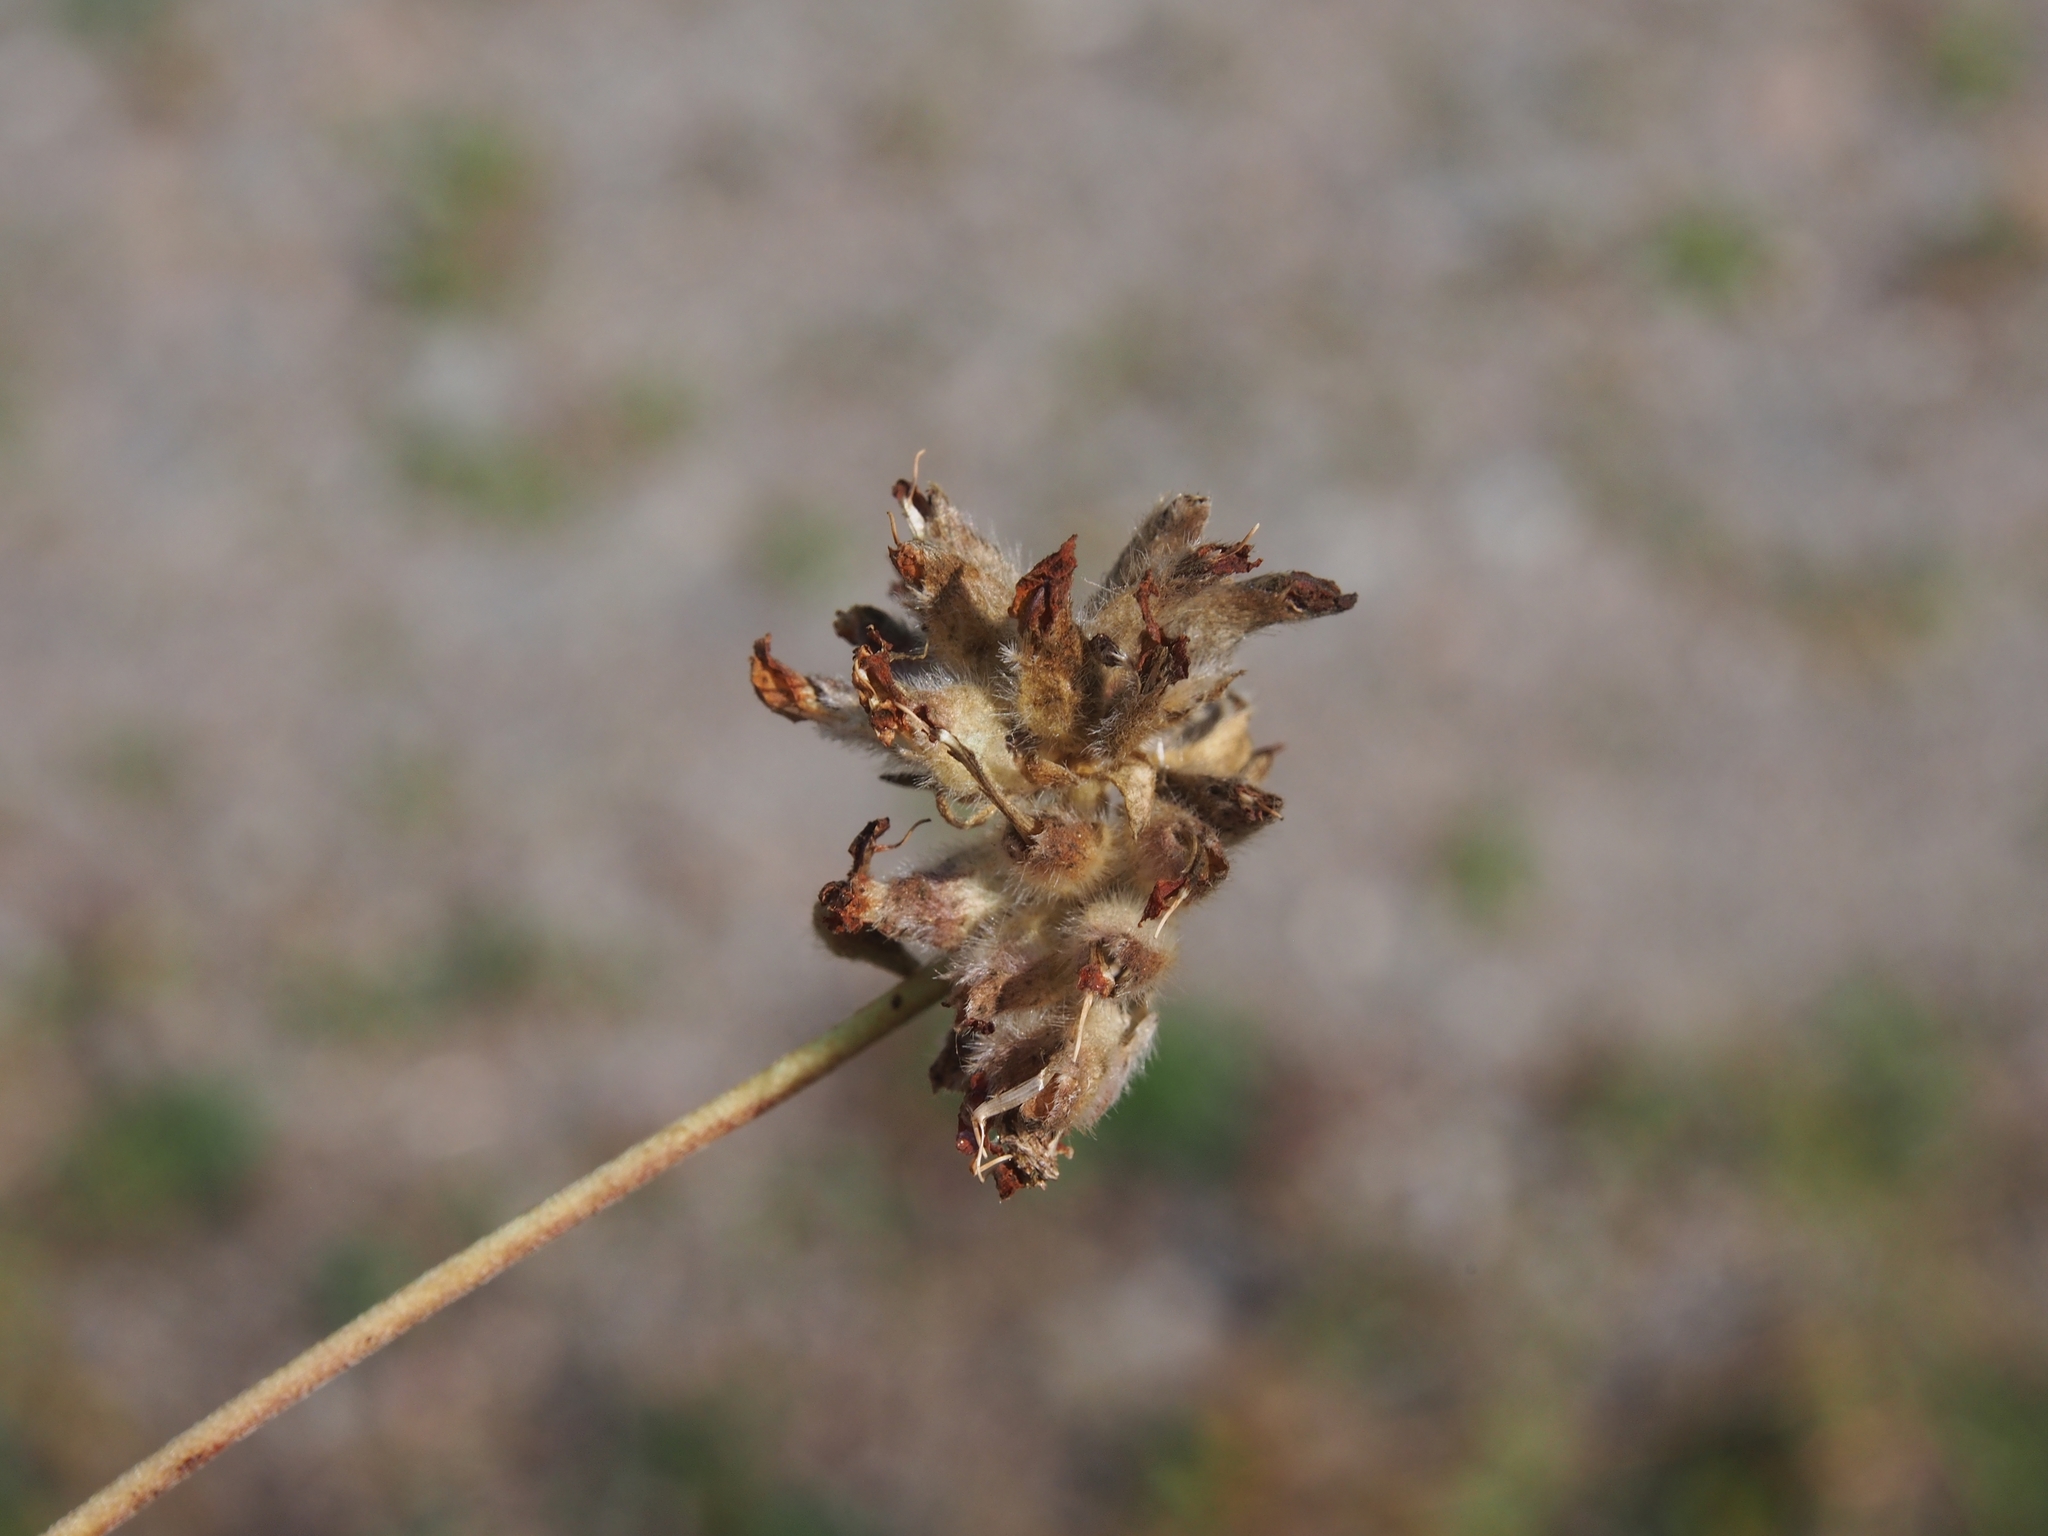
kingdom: Plantae
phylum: Tracheophyta
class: Magnoliopsida
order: Fabales
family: Fabaceae
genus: Anthyllis
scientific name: Anthyllis vulneraria
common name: Kidney vetch
